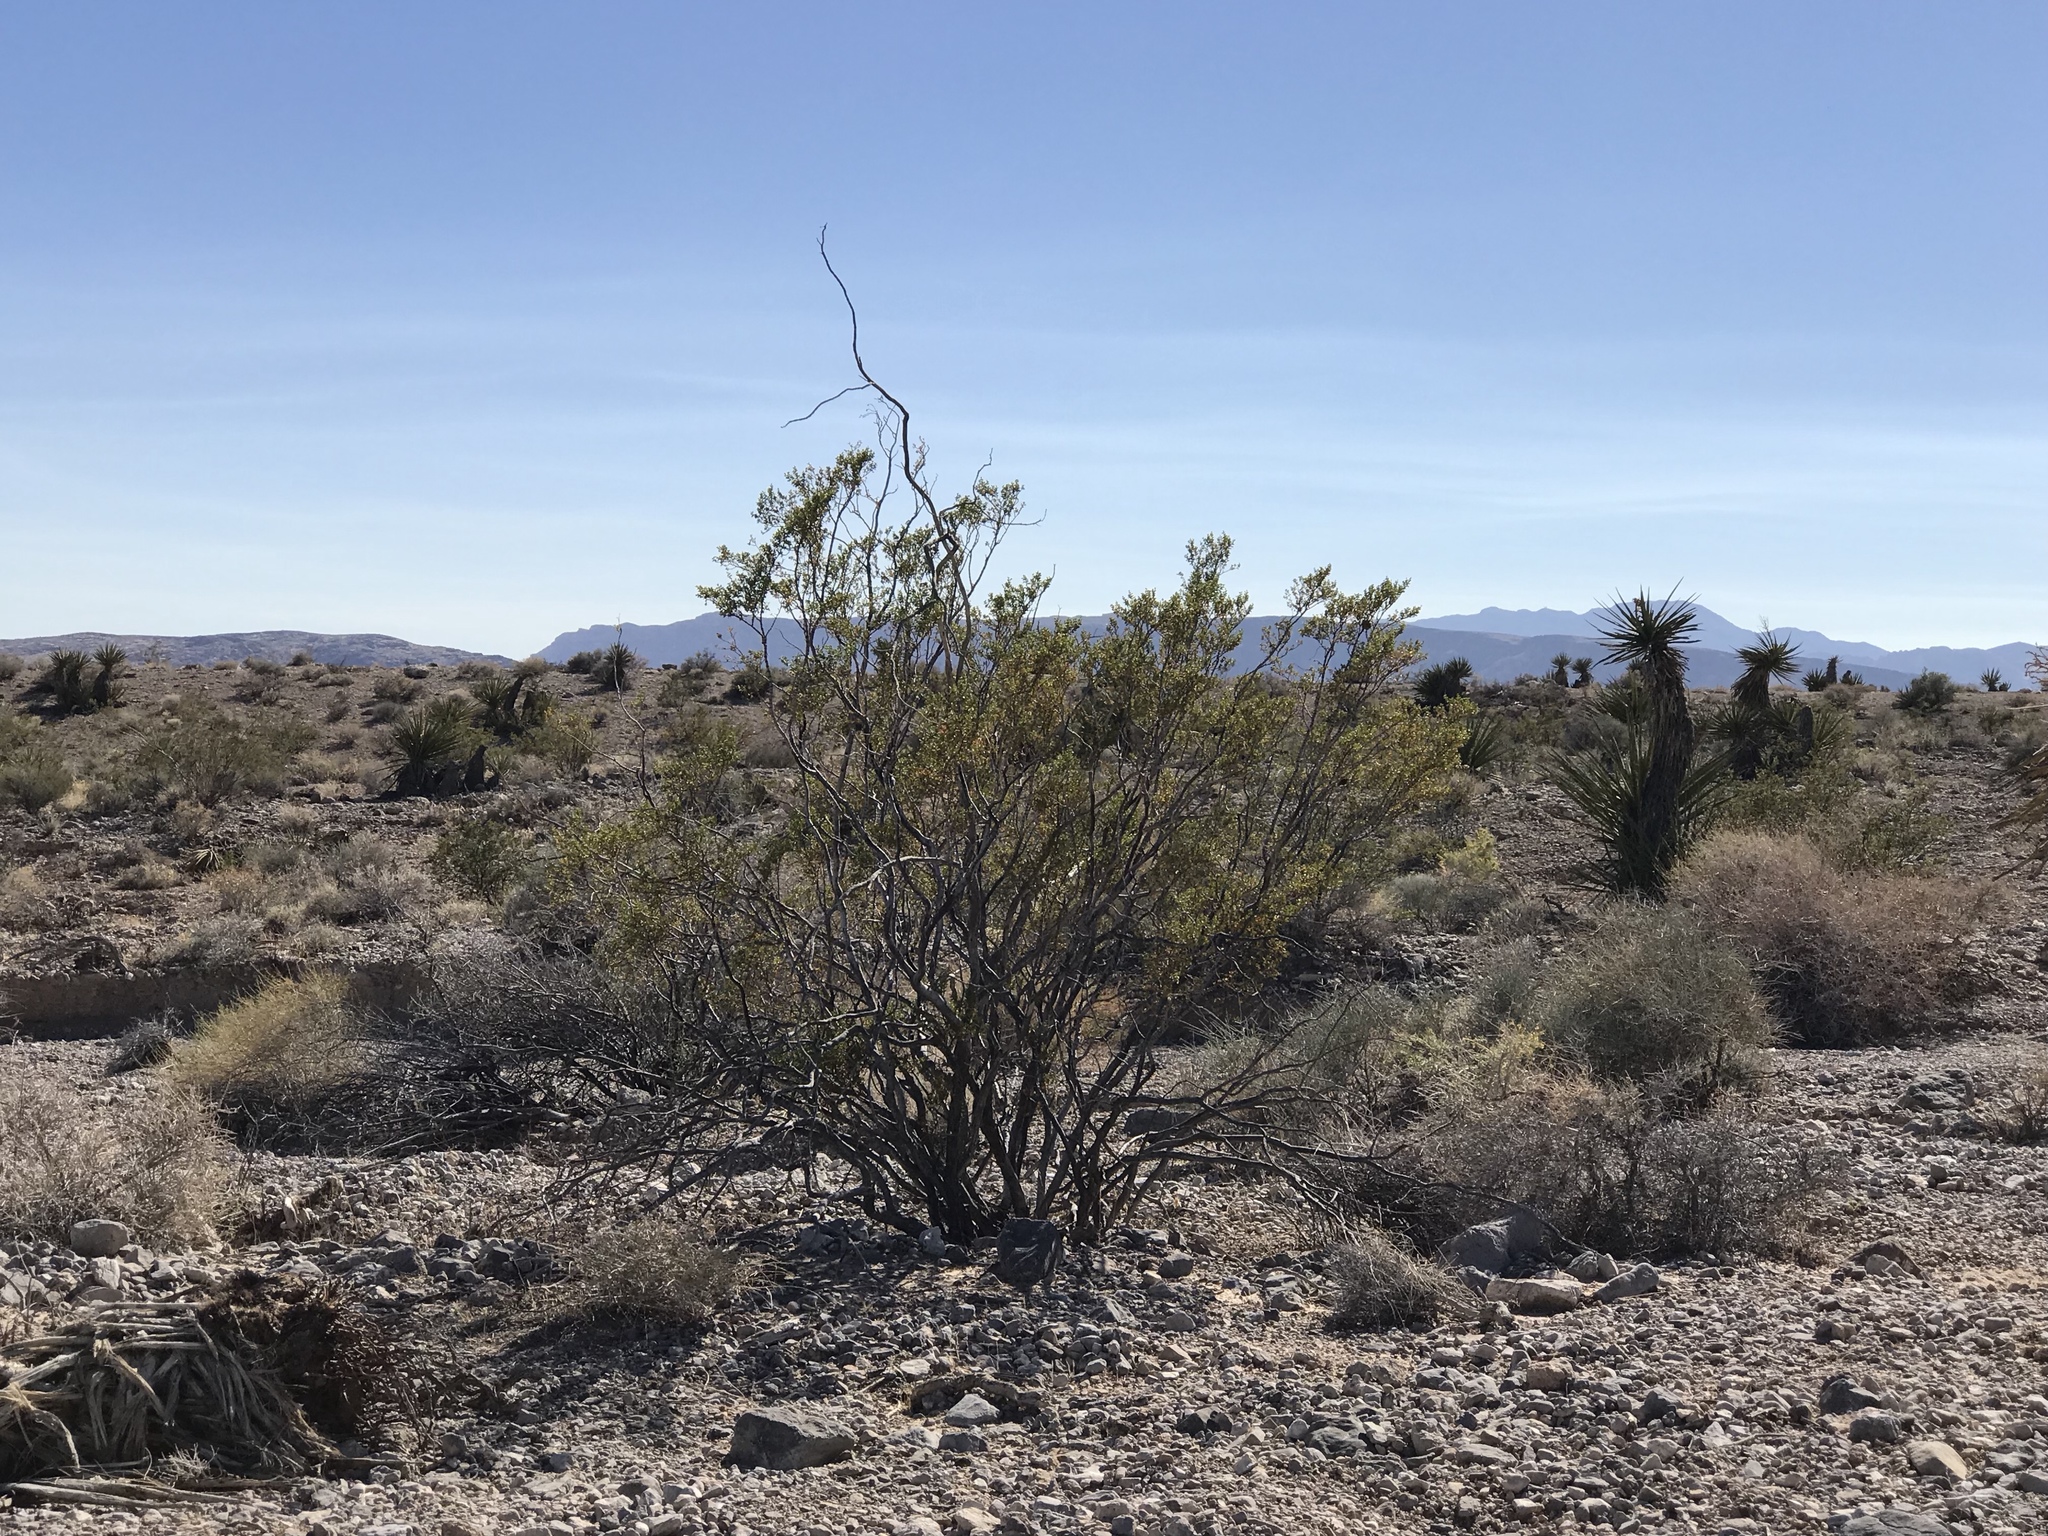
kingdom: Plantae
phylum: Tracheophyta
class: Magnoliopsida
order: Zygophyllales
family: Zygophyllaceae
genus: Larrea
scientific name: Larrea tridentata
